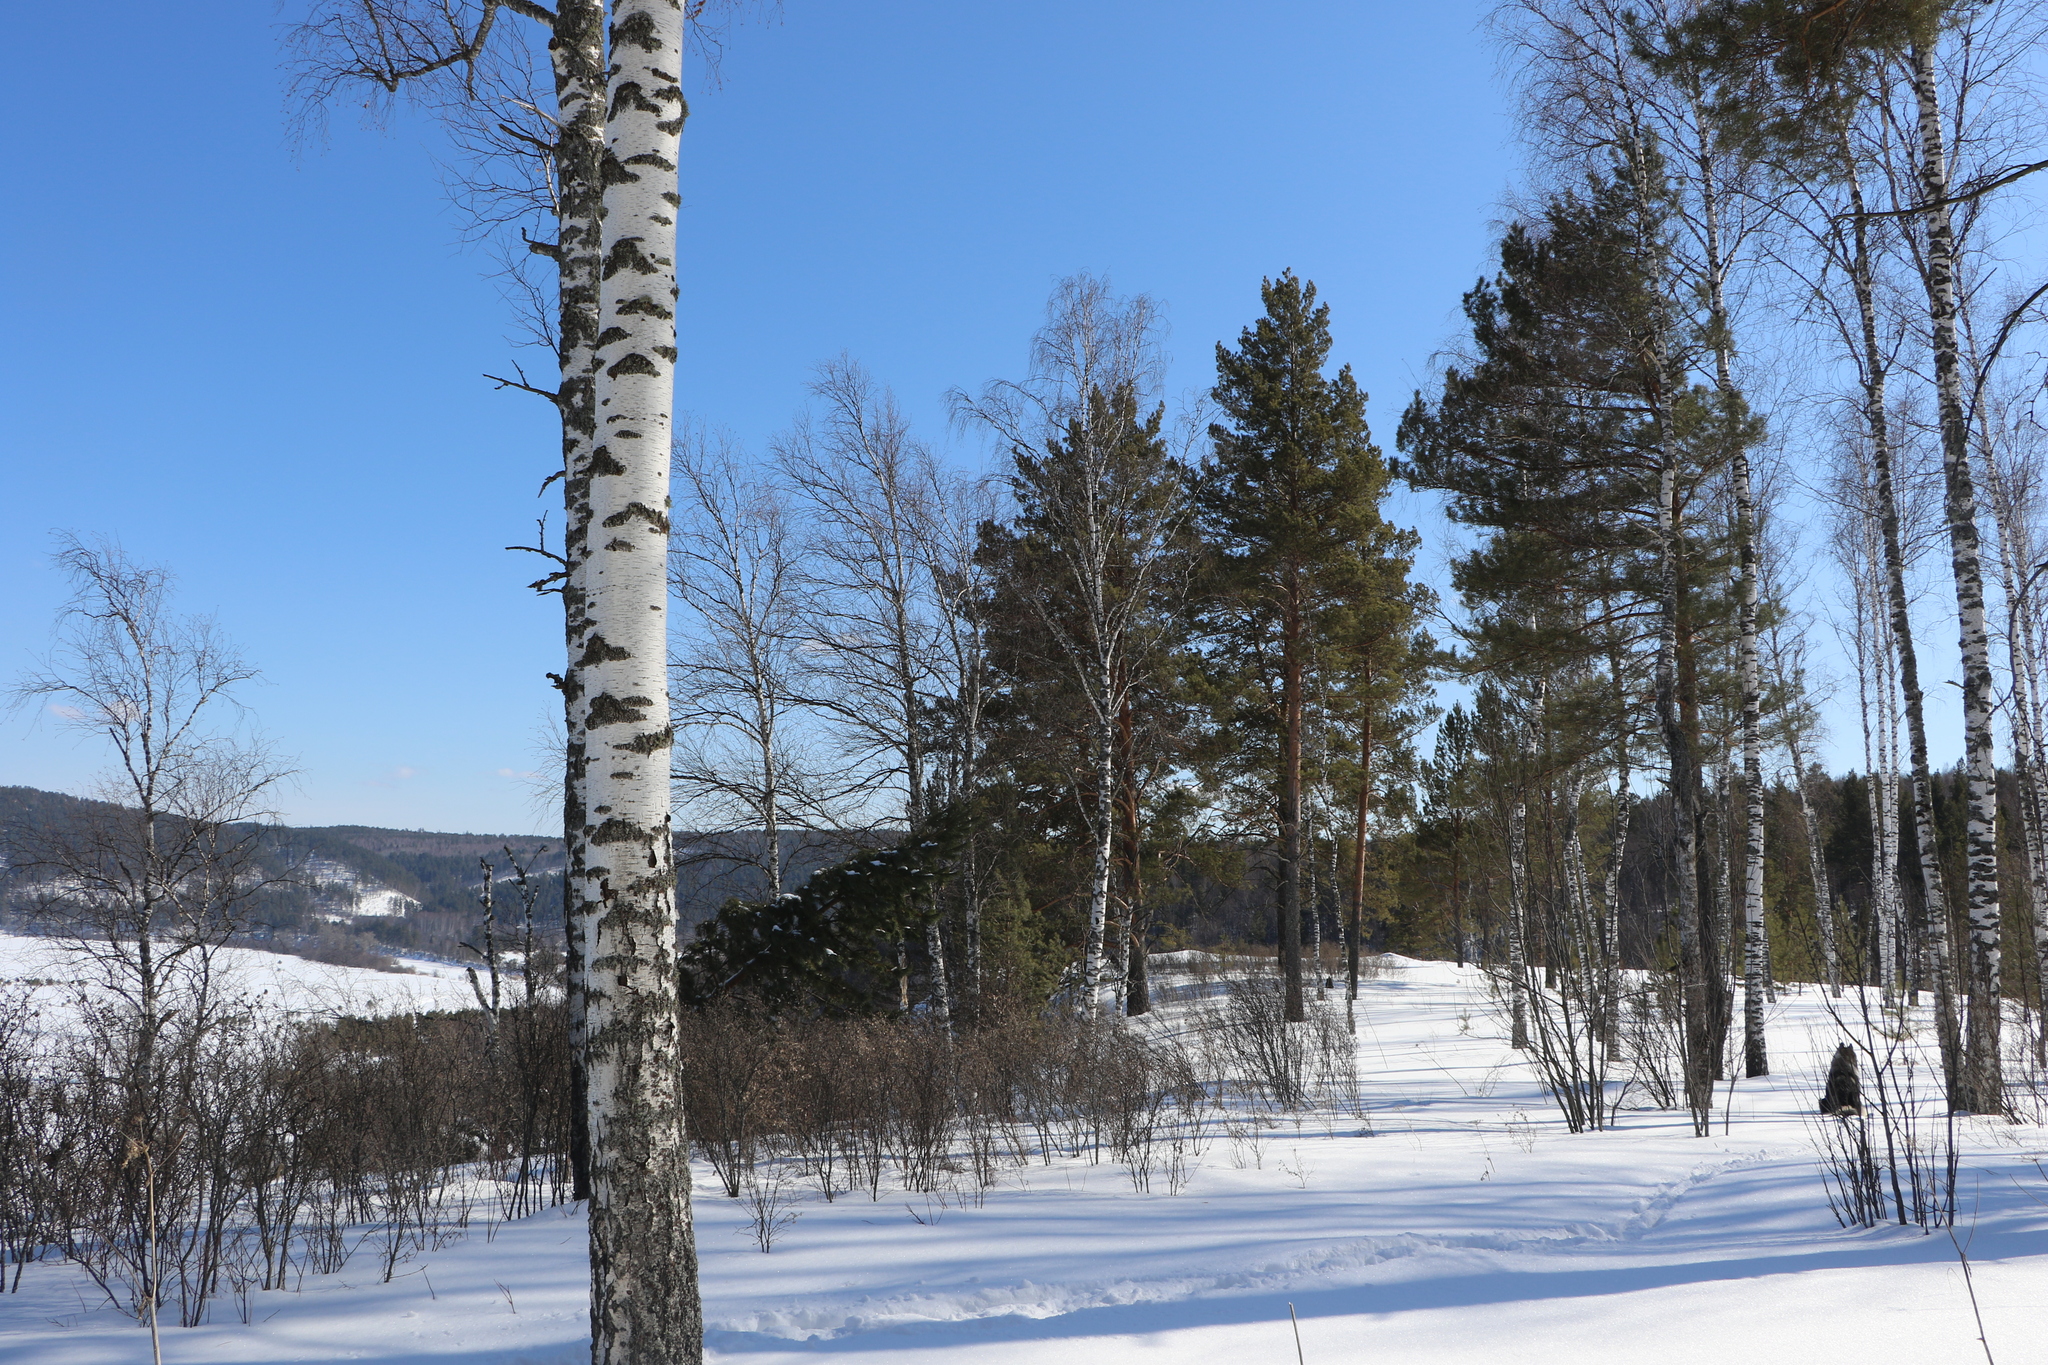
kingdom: Plantae
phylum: Tracheophyta
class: Magnoliopsida
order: Fagales
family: Betulaceae
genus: Betula
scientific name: Betula pendula
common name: Silver birch
